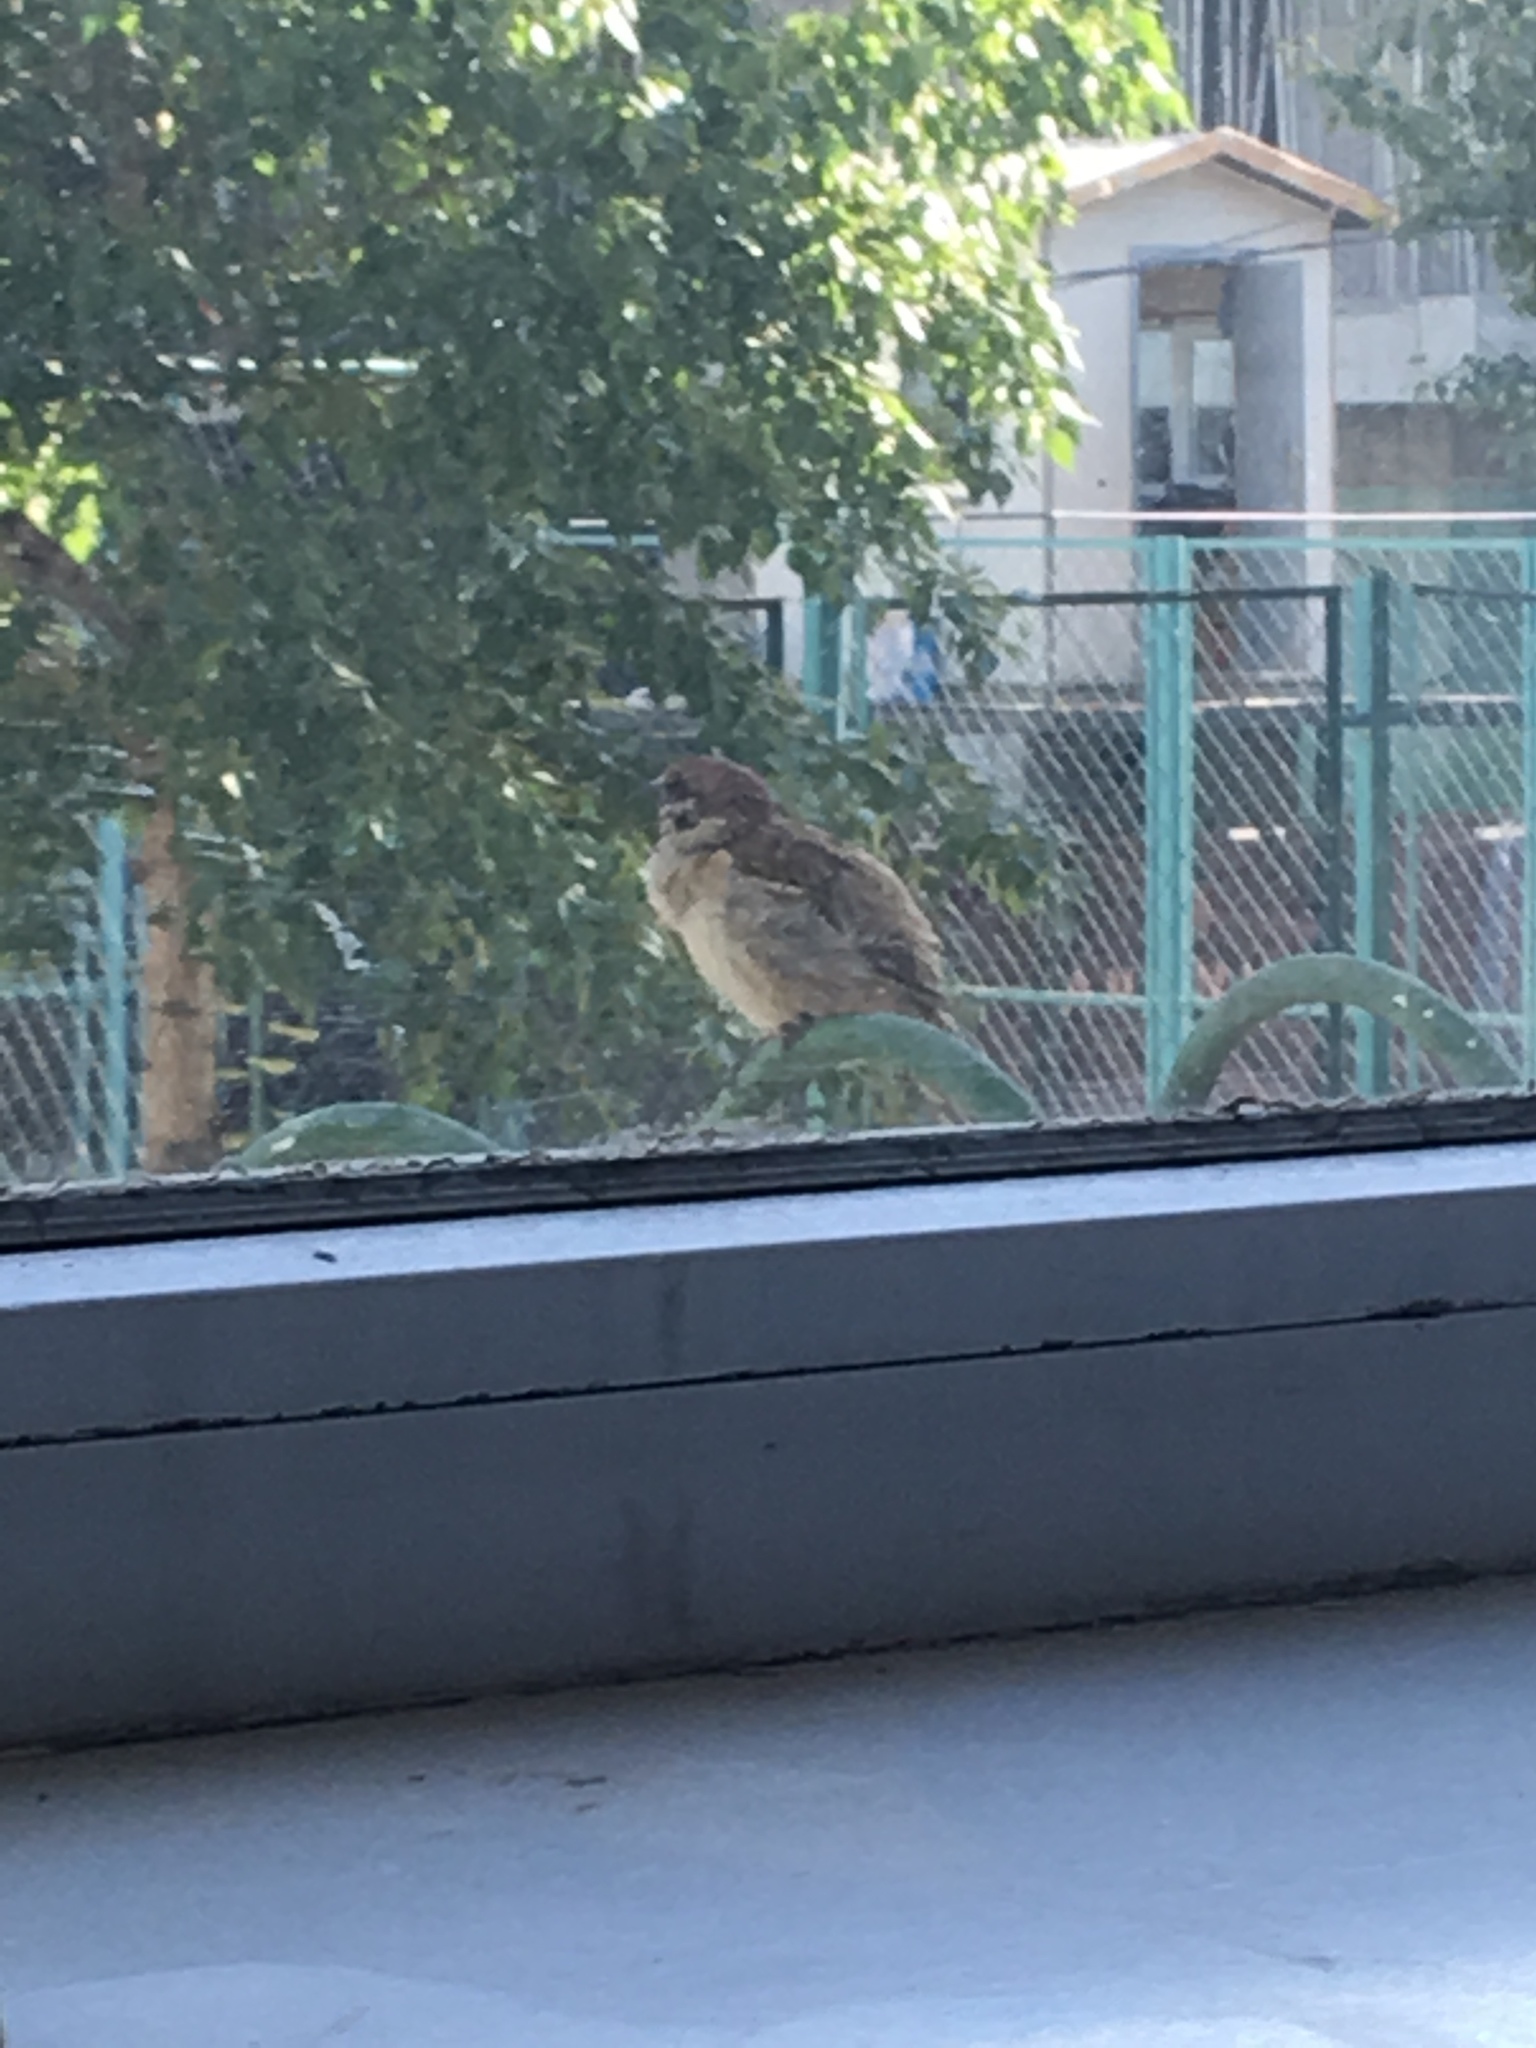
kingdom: Animalia
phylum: Chordata
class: Aves
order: Passeriformes
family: Passeridae
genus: Passer
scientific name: Passer montanus
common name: Eurasian tree sparrow
